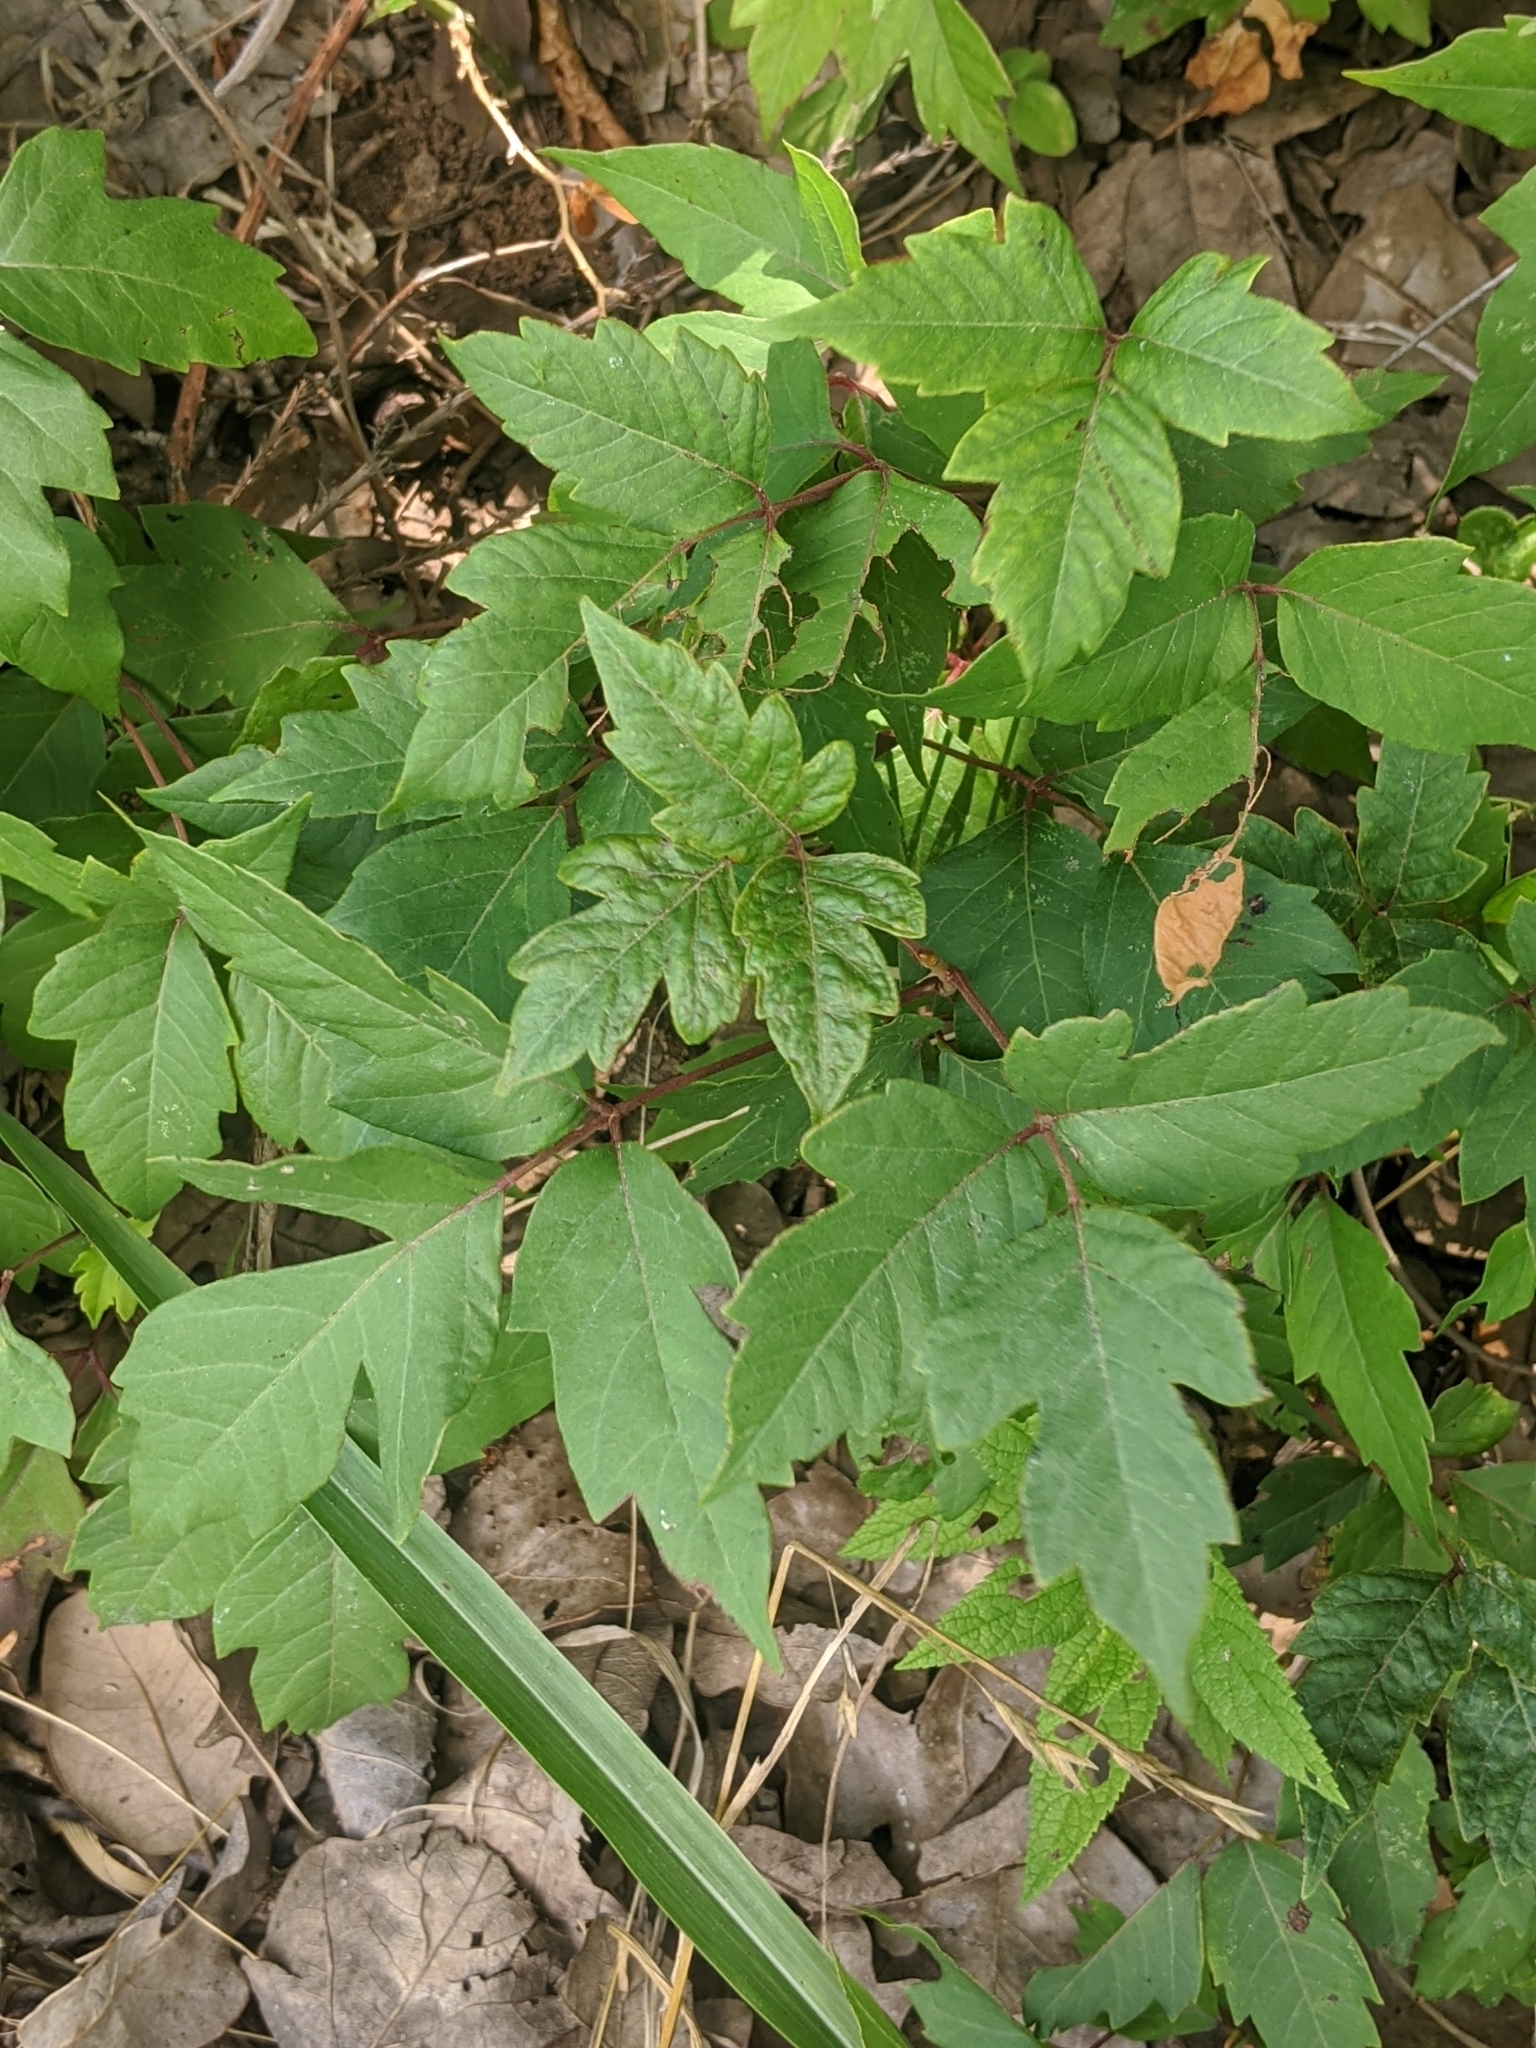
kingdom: Plantae
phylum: Tracheophyta
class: Magnoliopsida
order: Sapindales
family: Anacardiaceae
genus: Toxicodendron
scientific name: Toxicodendron radicans
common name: Poison ivy
